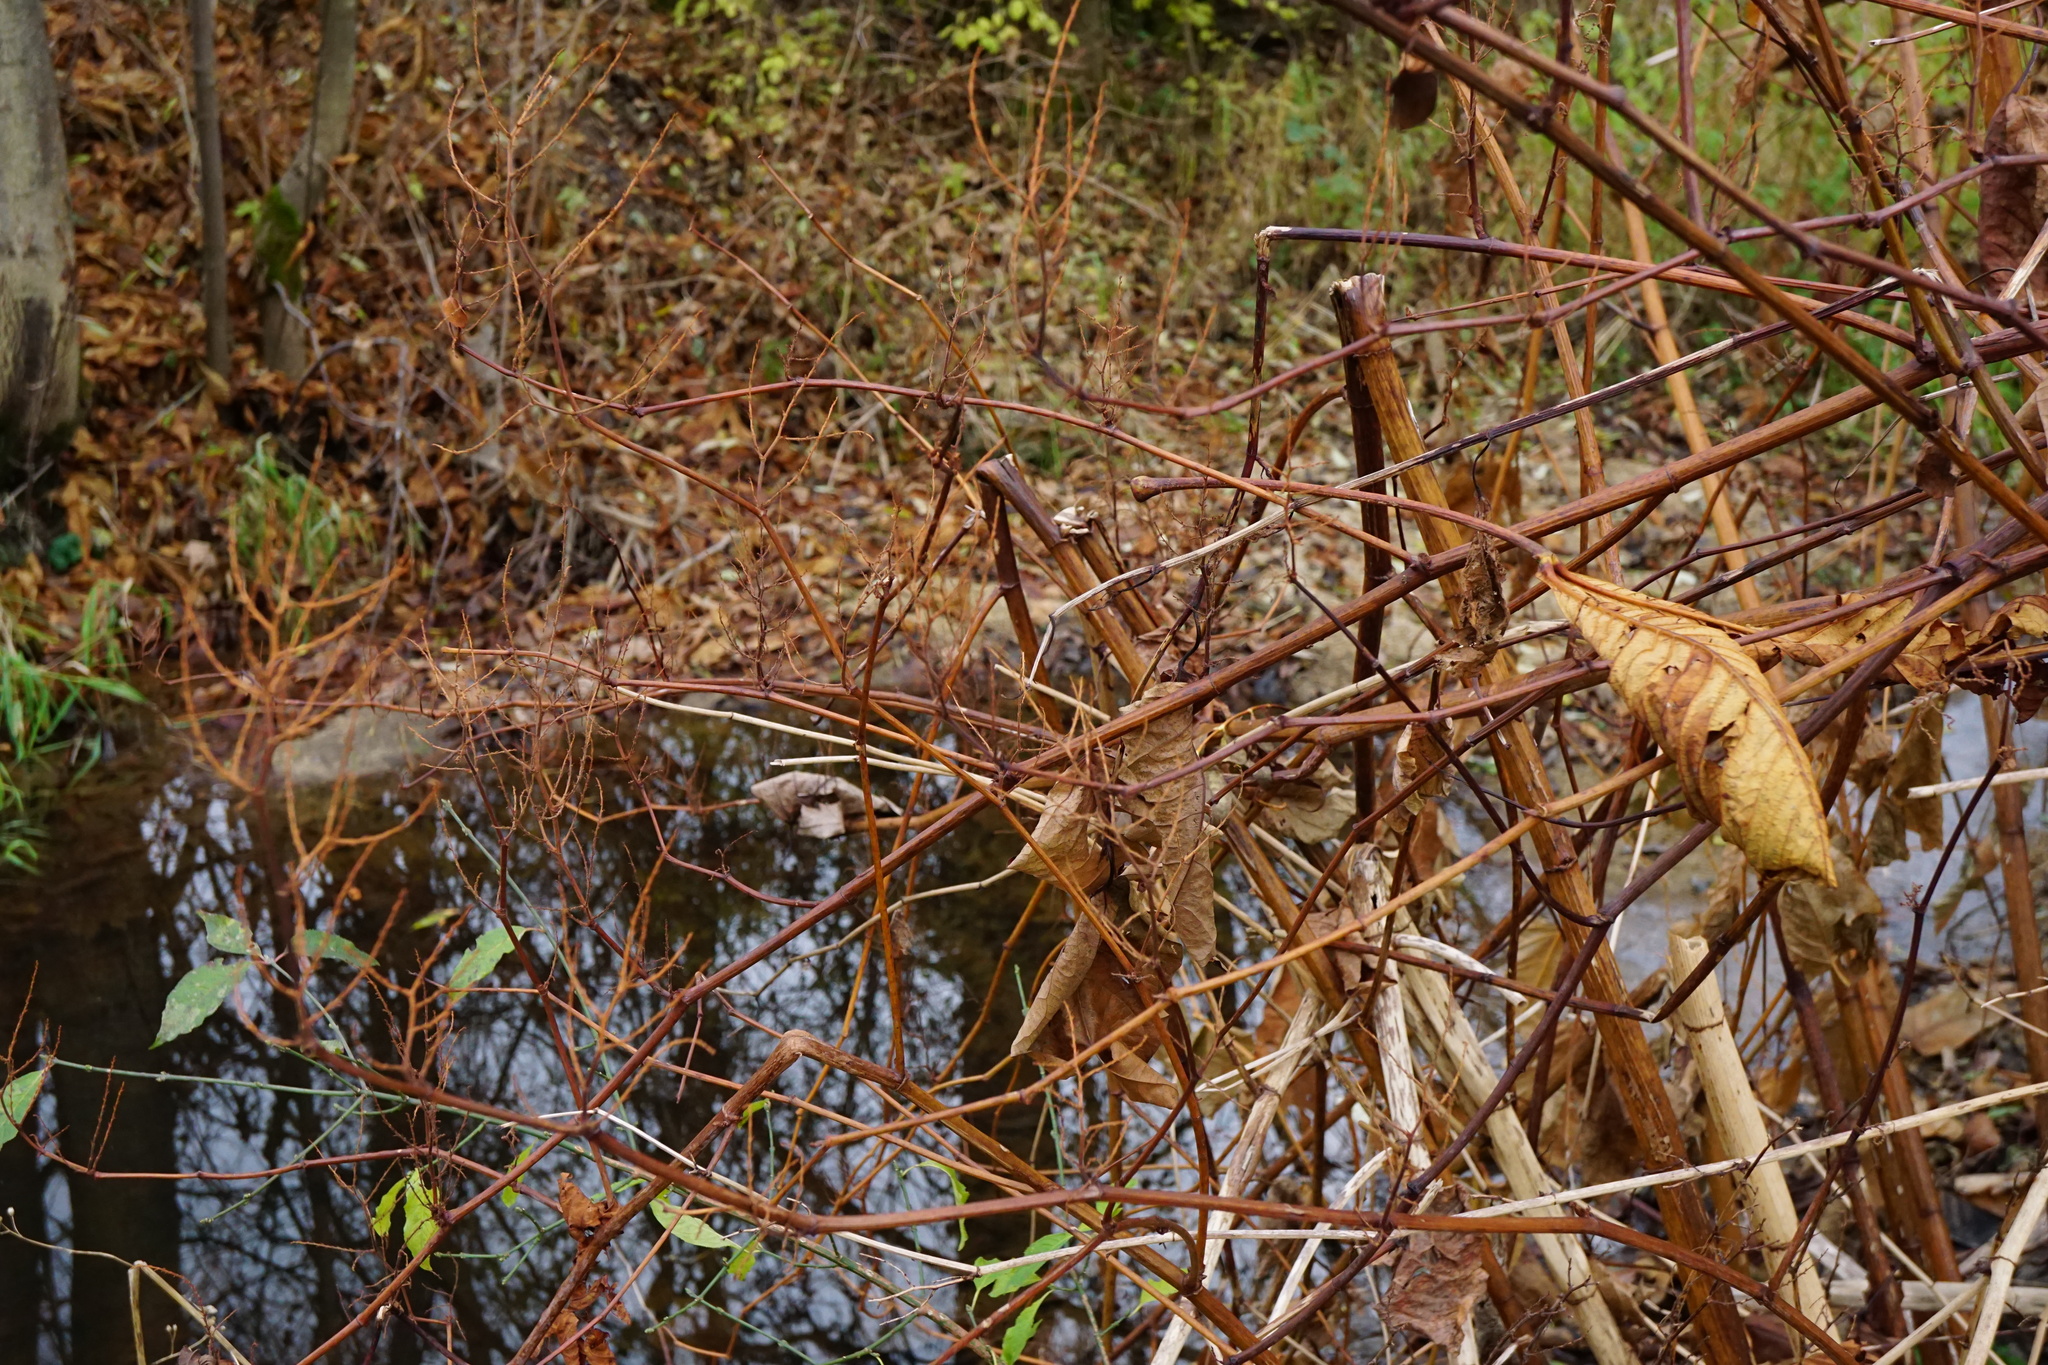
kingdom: Plantae
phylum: Tracheophyta
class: Magnoliopsida
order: Caryophyllales
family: Polygonaceae
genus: Reynoutria
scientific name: Reynoutria bohemica
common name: Bohemian knotweed
